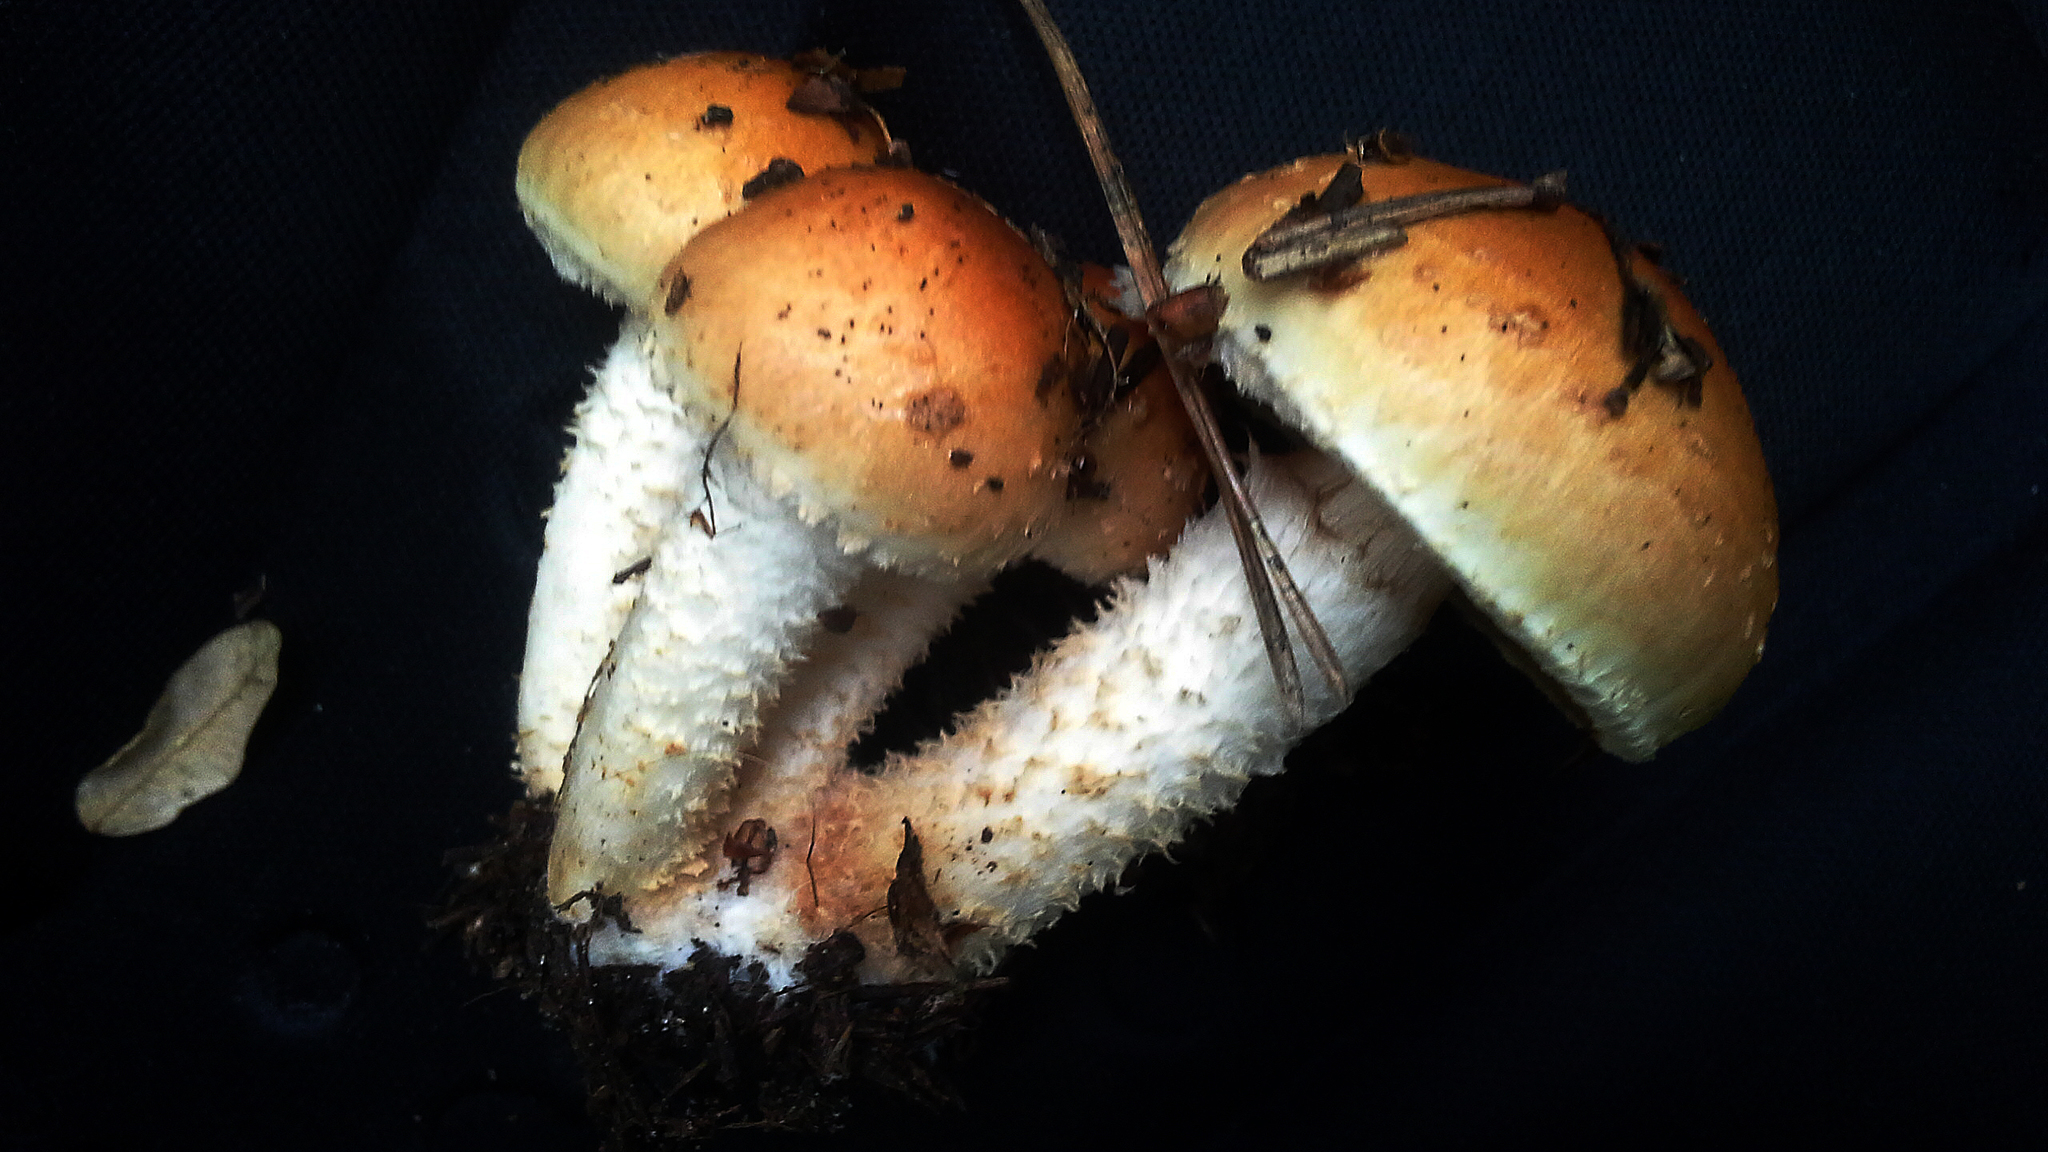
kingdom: Fungi
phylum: Basidiomycota
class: Agaricomycetes
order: Agaricales
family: Strophariaceae
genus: Pholiota
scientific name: Pholiota lubrica
